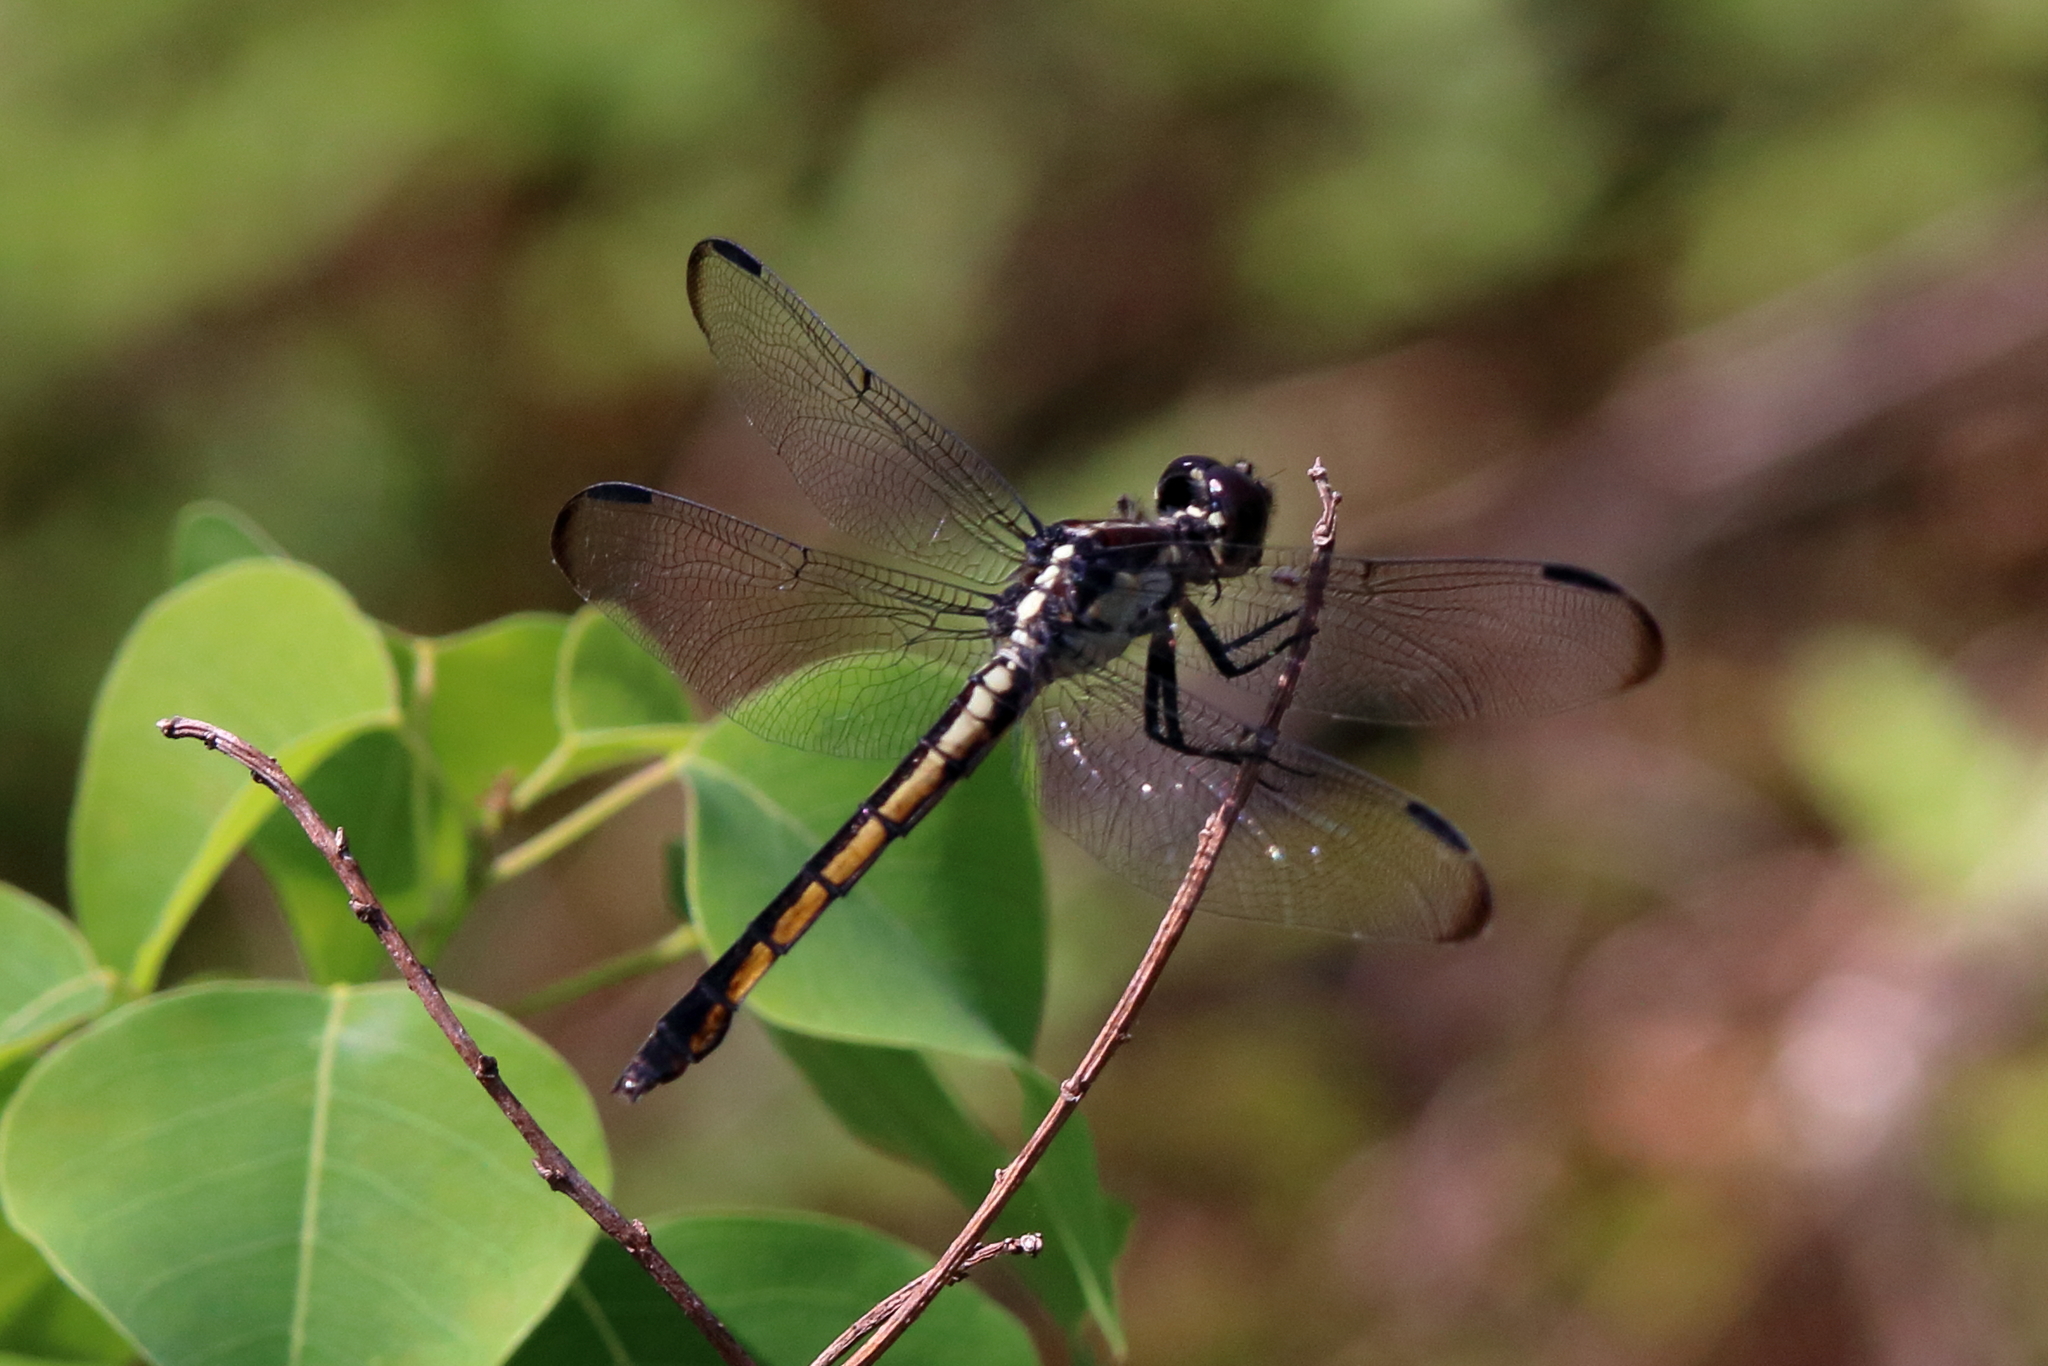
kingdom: Animalia
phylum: Arthropoda
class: Insecta
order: Odonata
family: Libellulidae
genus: Libellula
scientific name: Libellula vibrans
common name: Great blue skimmer
